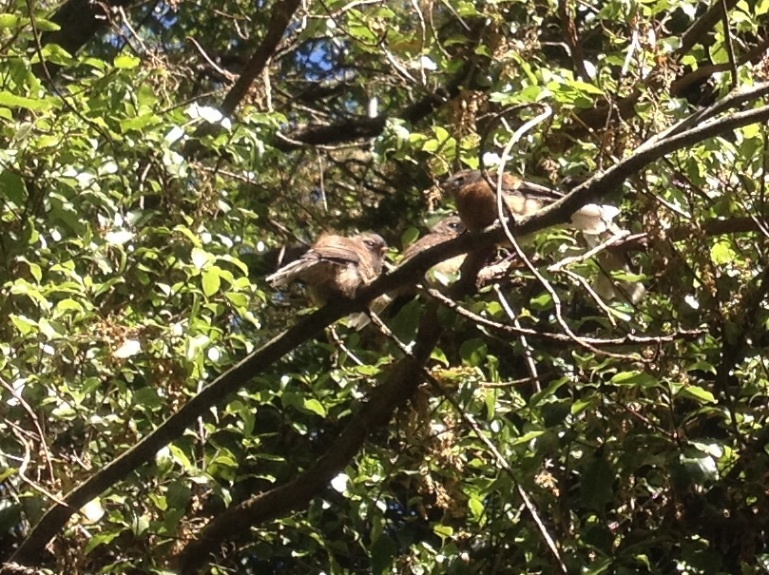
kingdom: Animalia
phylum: Chordata
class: Aves
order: Passeriformes
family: Rhipiduridae
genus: Rhipidura
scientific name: Rhipidura fuliginosa
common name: New zealand fantail
